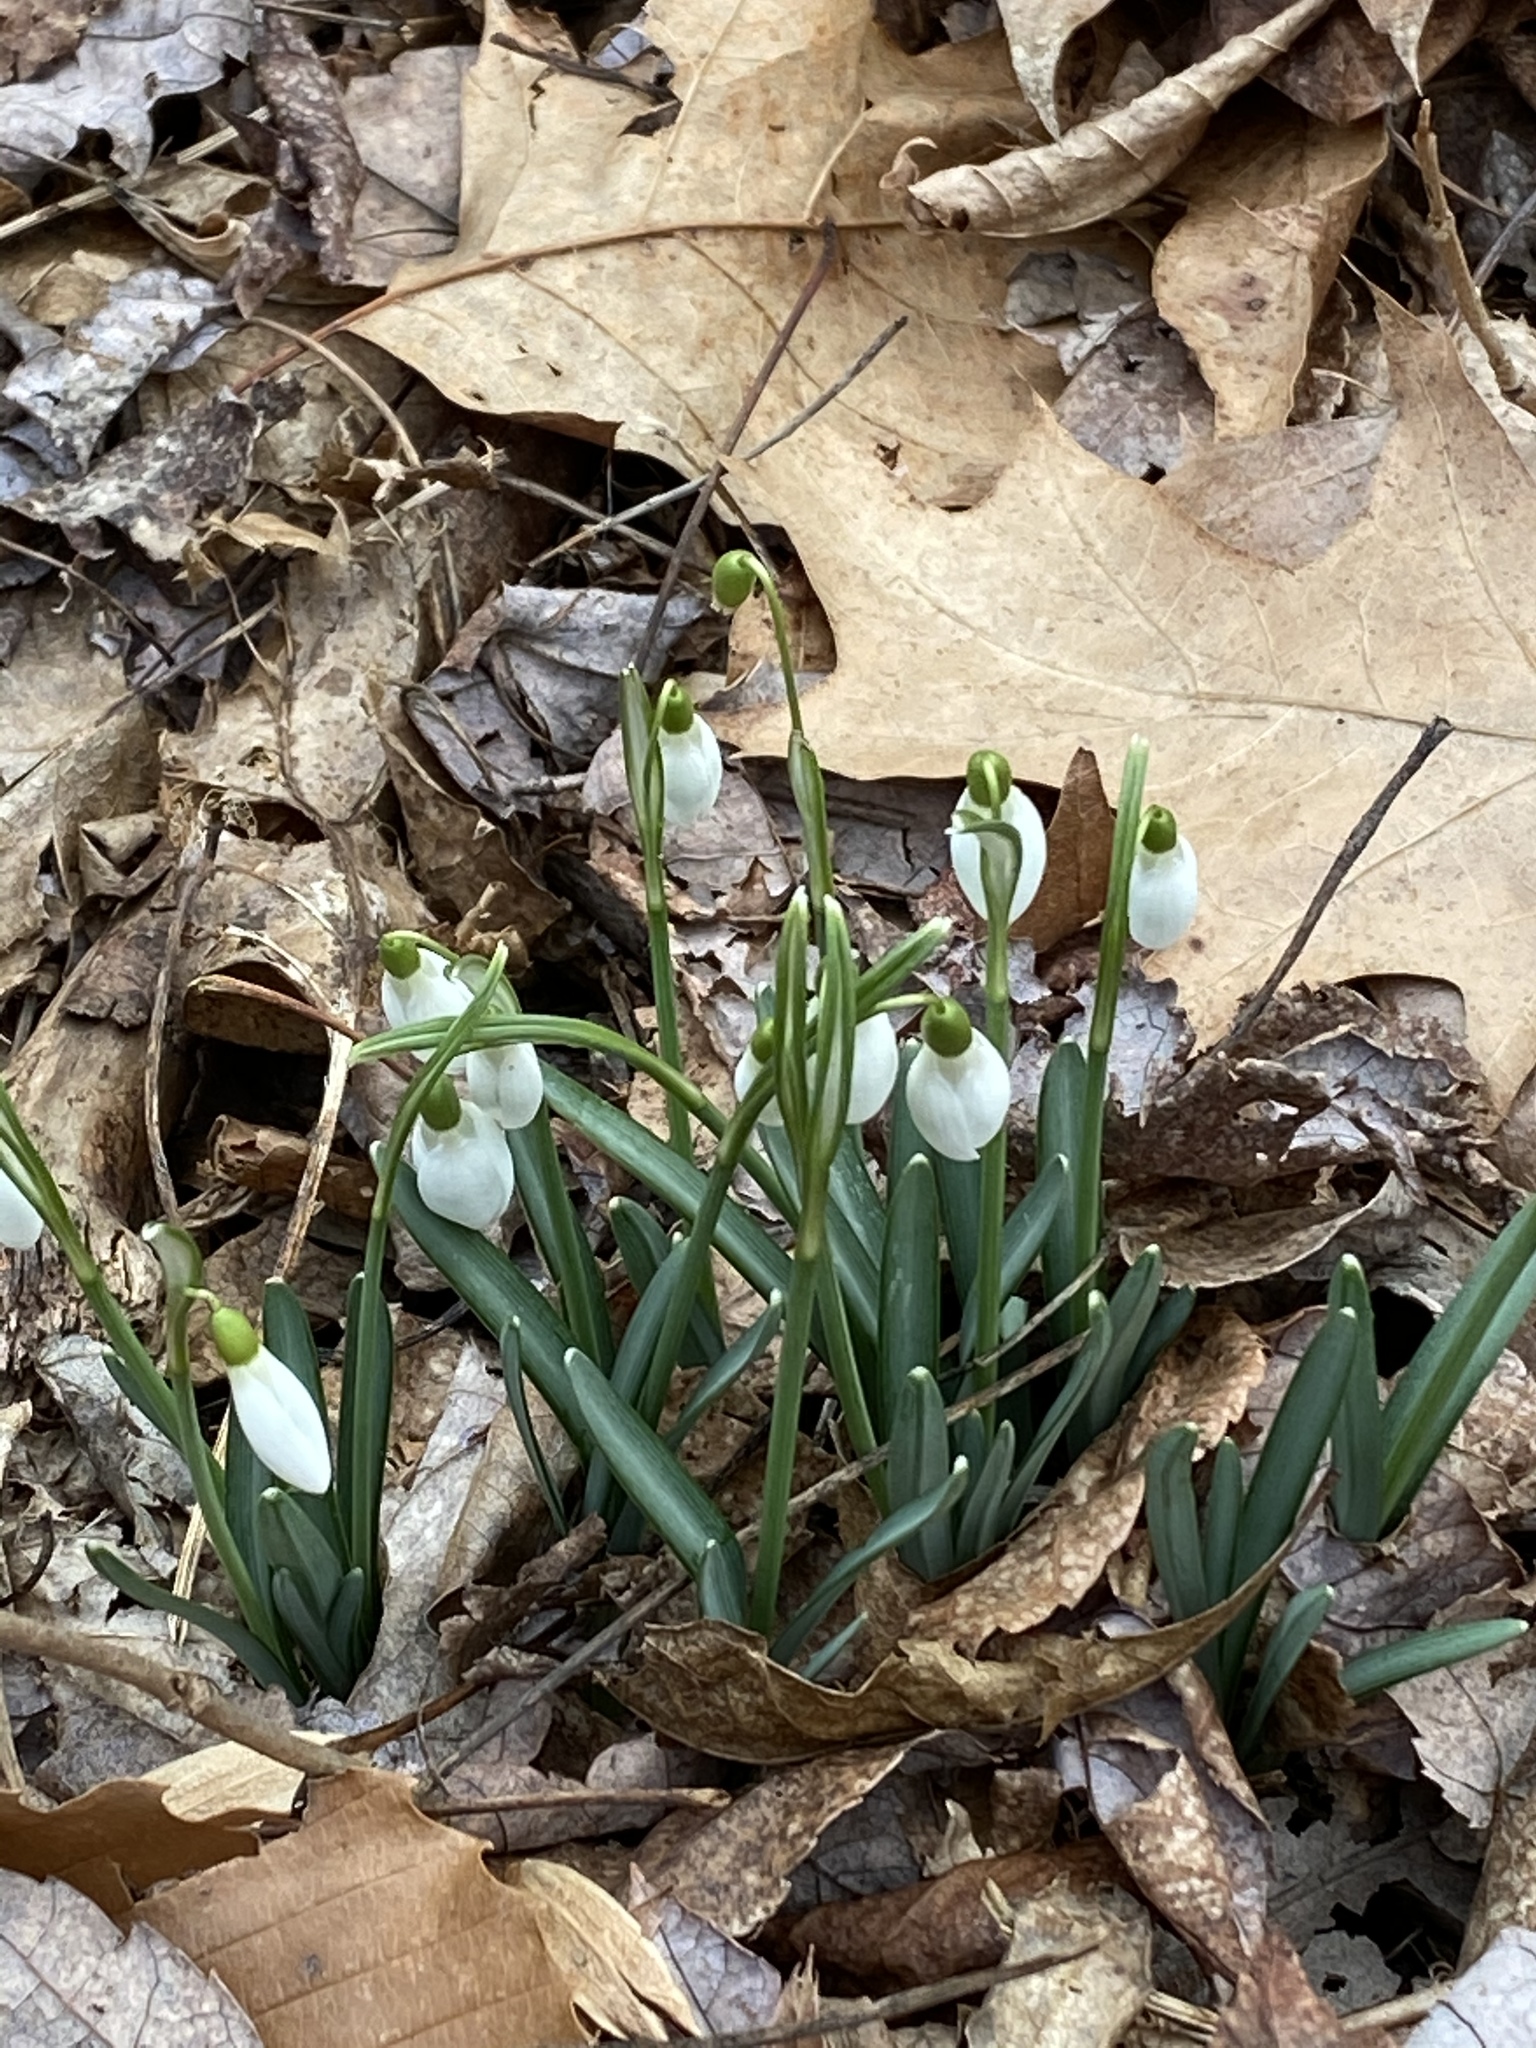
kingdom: Plantae
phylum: Tracheophyta
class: Liliopsida
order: Asparagales
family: Amaryllidaceae
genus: Galanthus
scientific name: Galanthus nivalis
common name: Snowdrop
